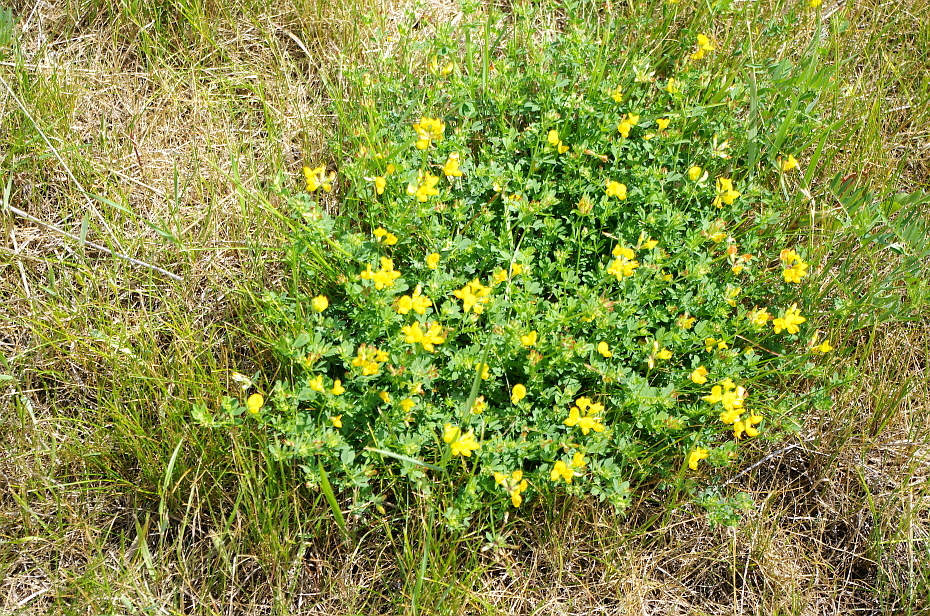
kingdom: Plantae
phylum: Tracheophyta
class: Magnoliopsida
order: Fabales
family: Fabaceae
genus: Lotus
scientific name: Lotus corniculatus
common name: Common bird's-foot-trefoil
